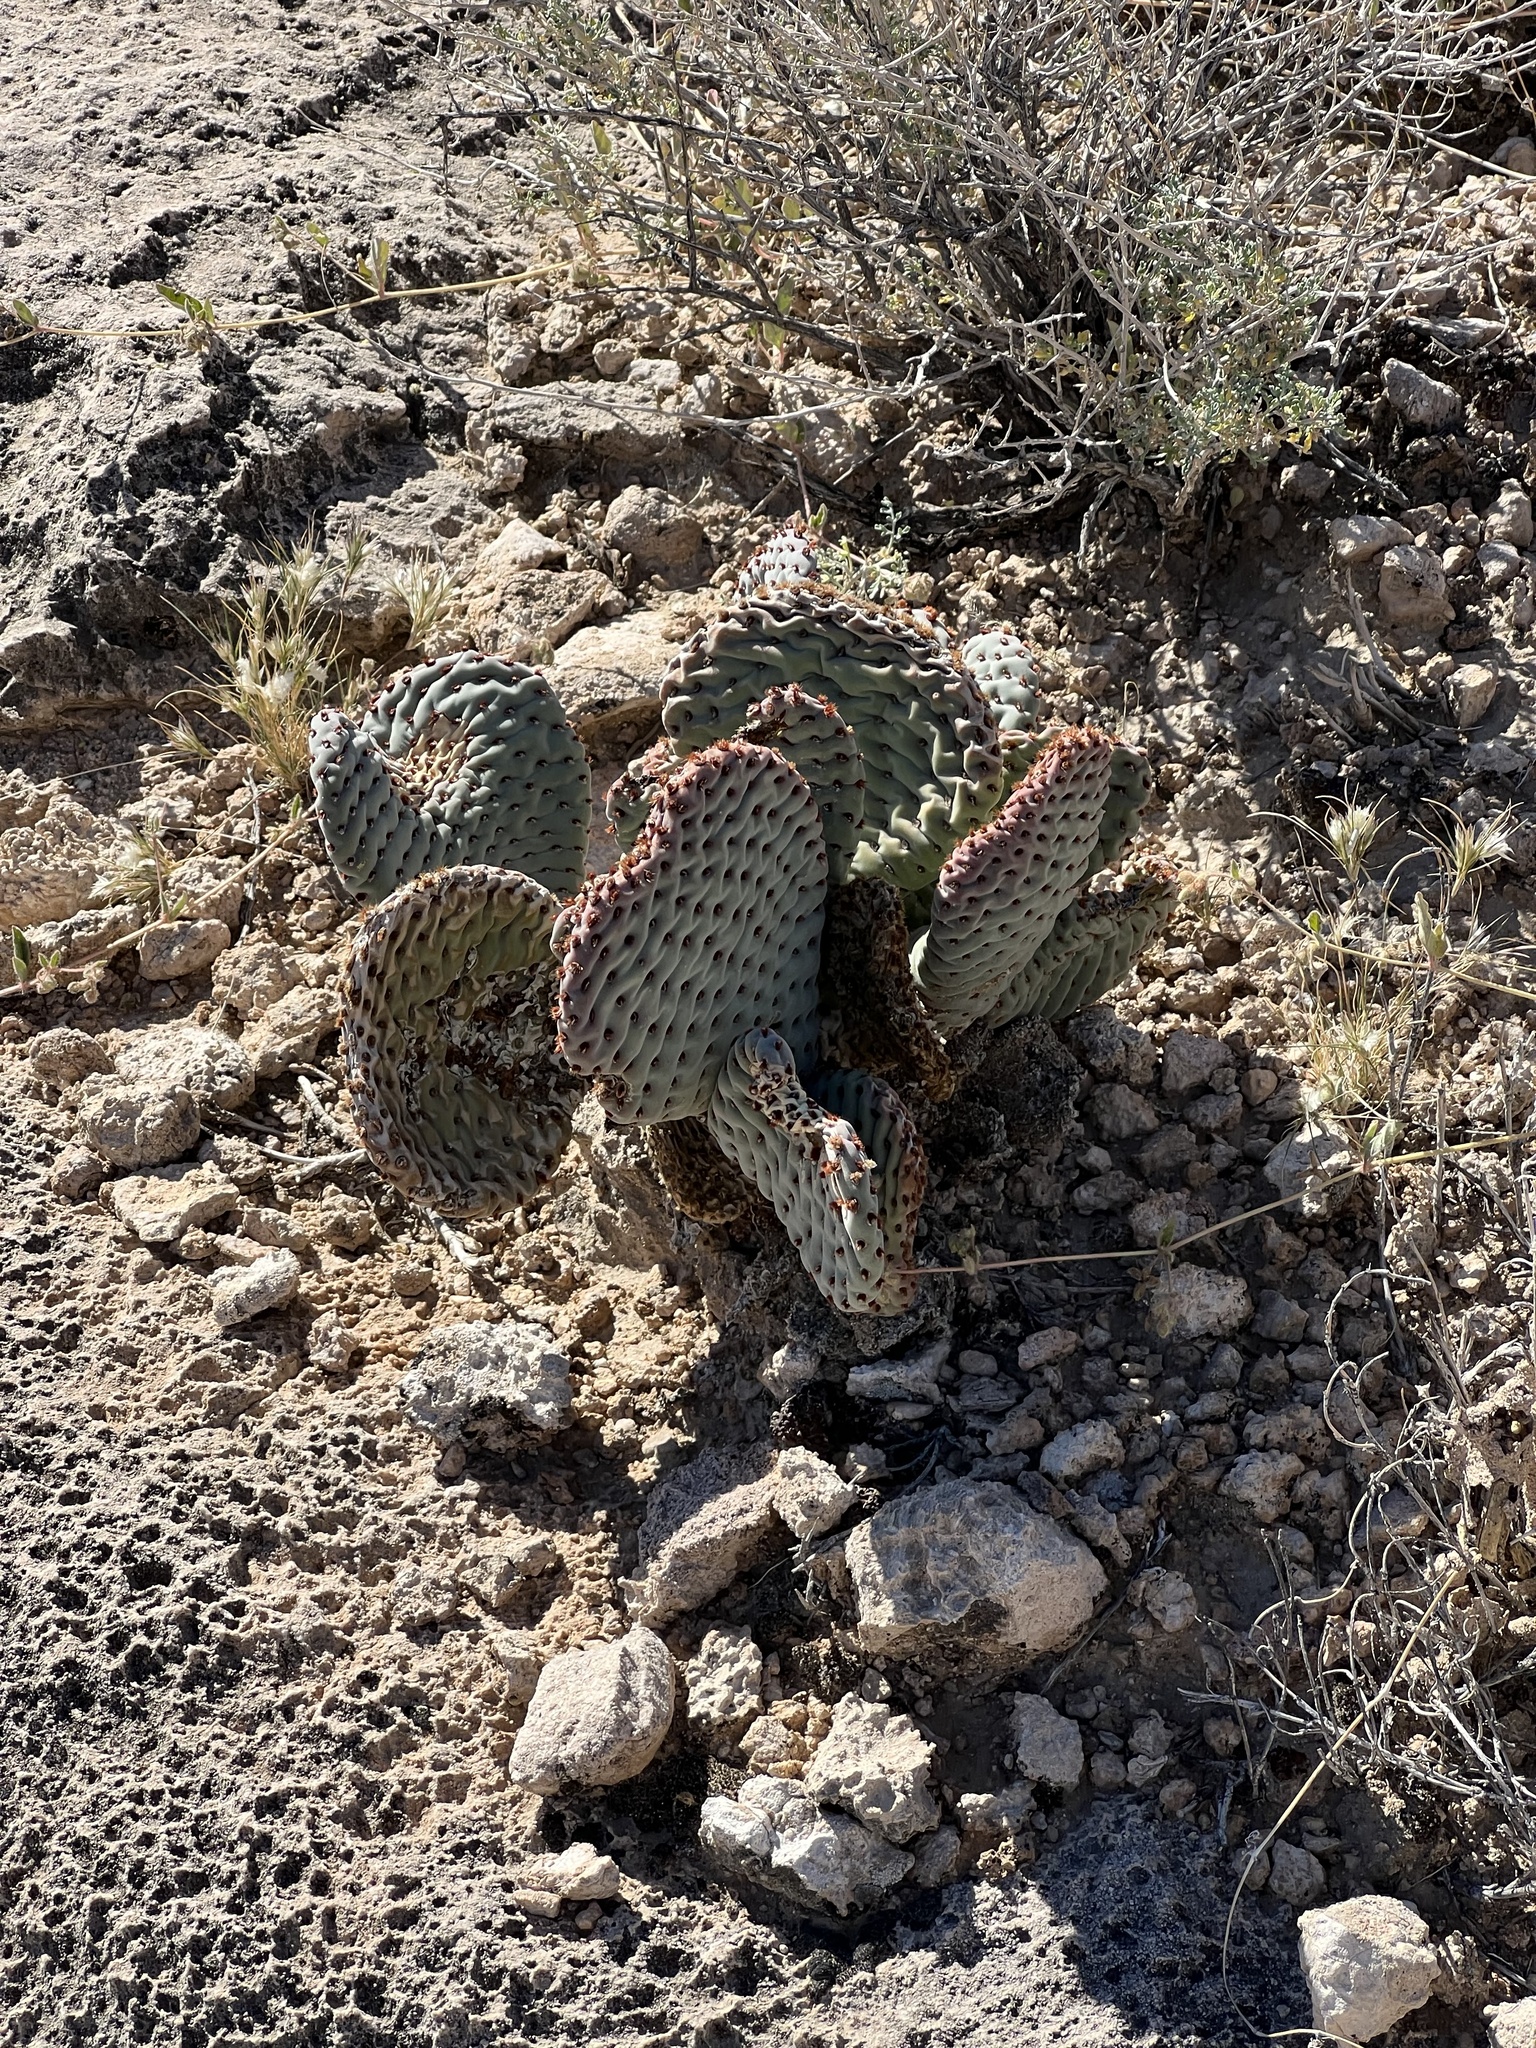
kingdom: Plantae
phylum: Tracheophyta
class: Magnoliopsida
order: Caryophyllales
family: Cactaceae
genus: Opuntia
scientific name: Opuntia basilaris
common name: Beavertail prickly-pear
